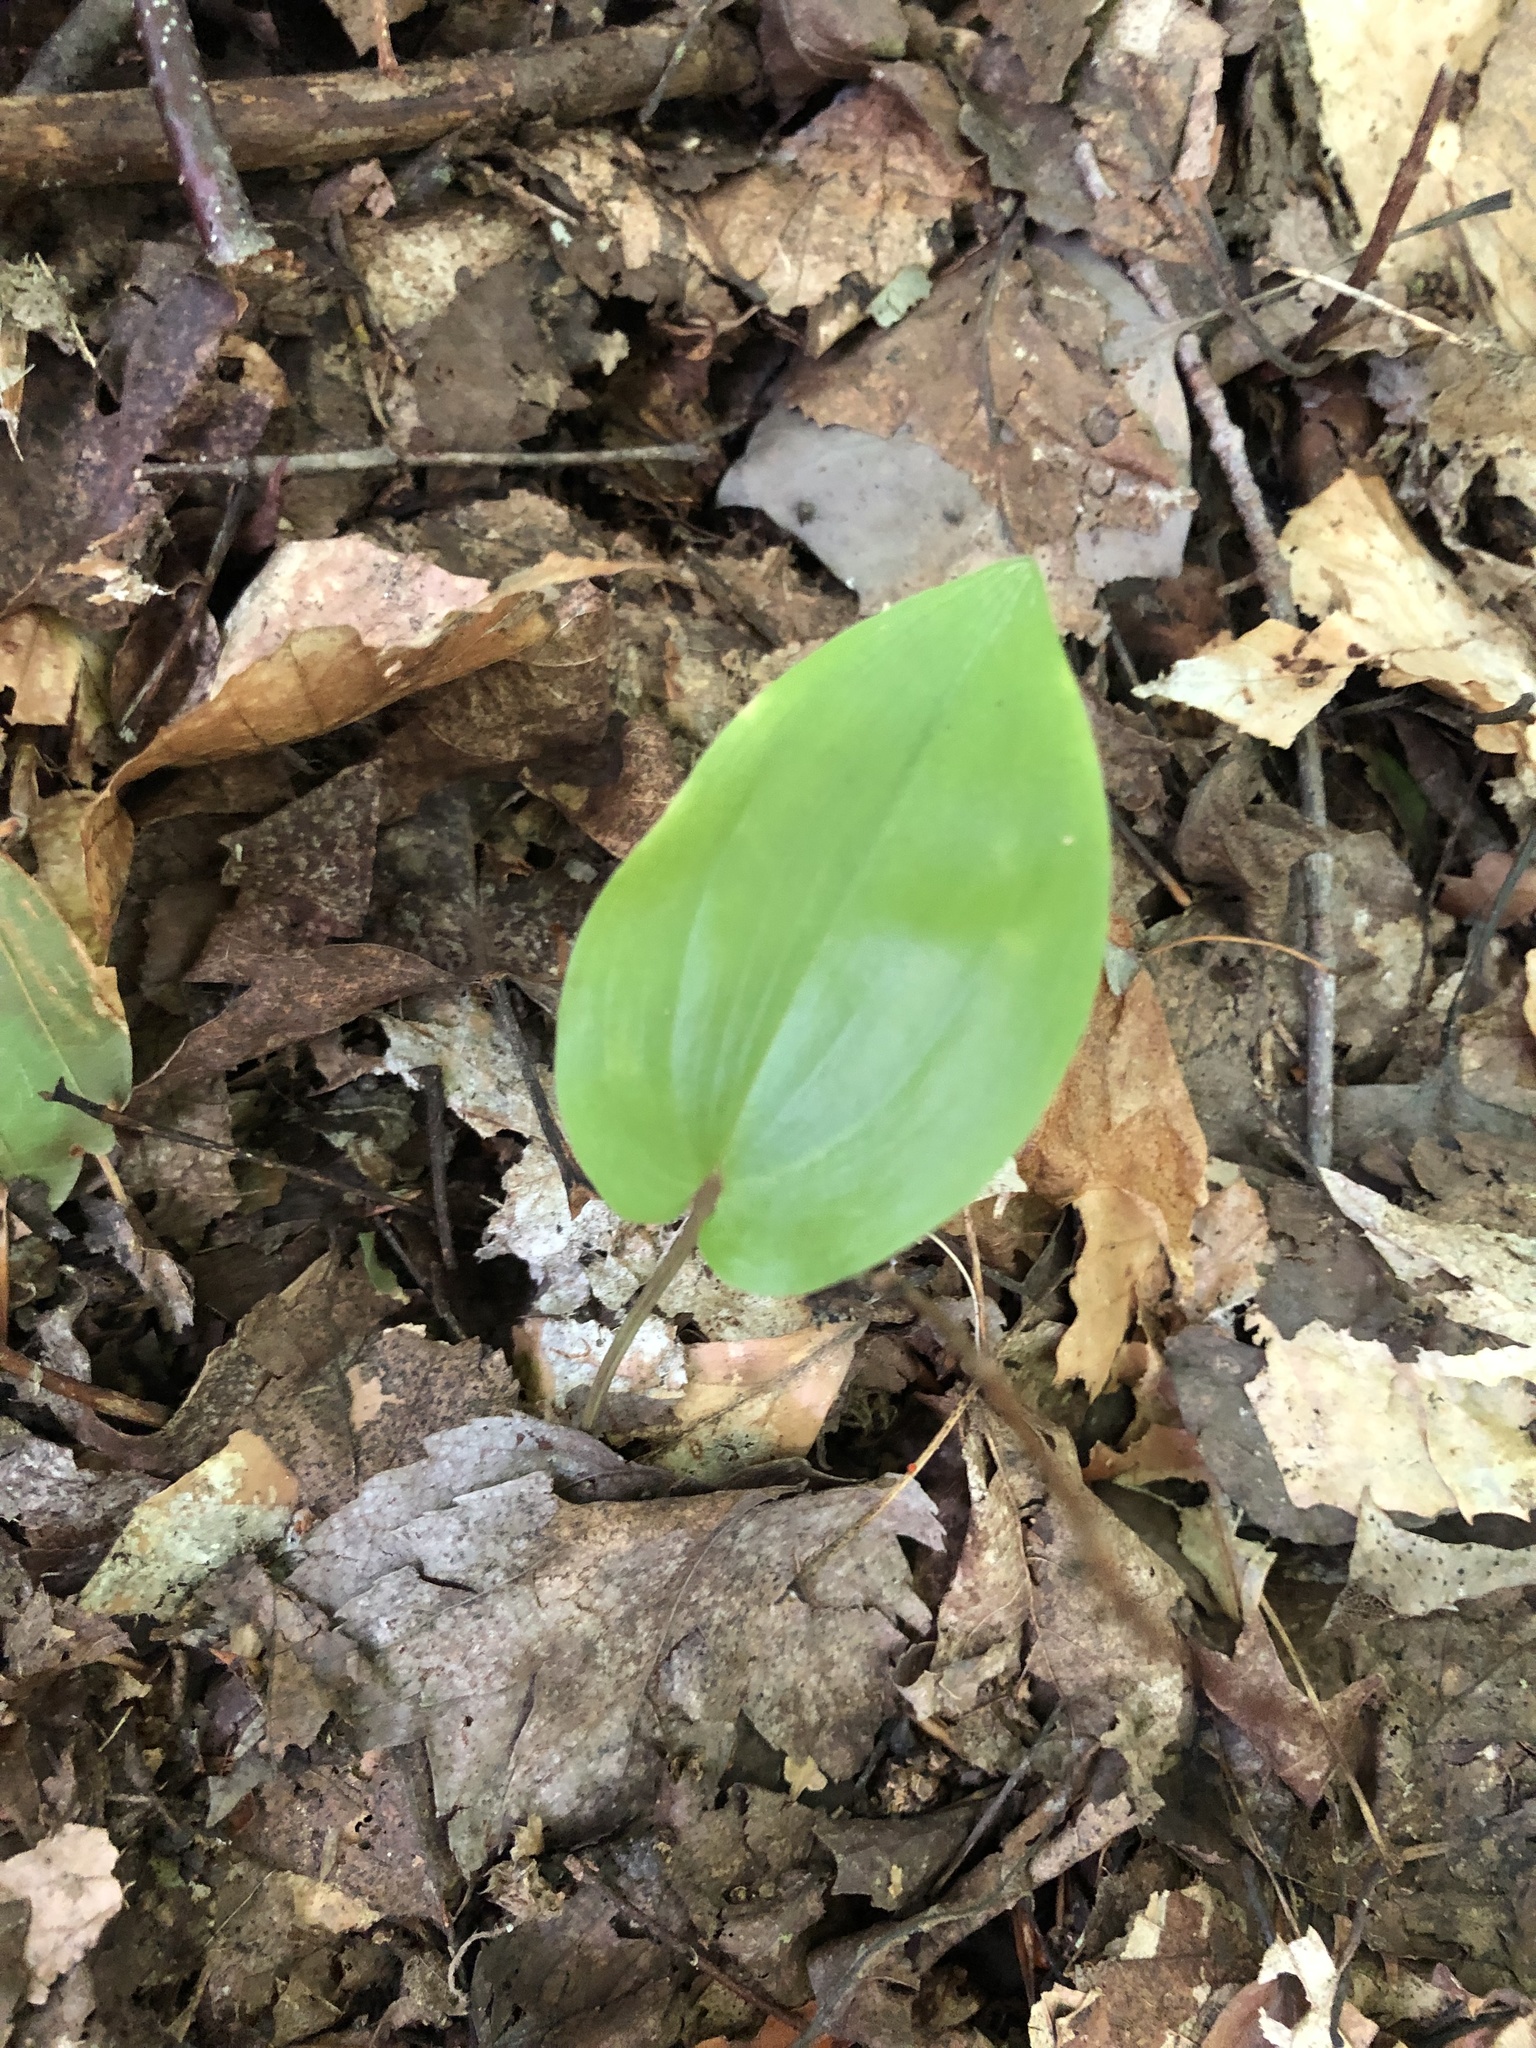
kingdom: Plantae
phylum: Tracheophyta
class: Liliopsida
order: Asparagales
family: Asparagaceae
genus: Maianthemum
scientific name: Maianthemum canadense
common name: False lily-of-the-valley
